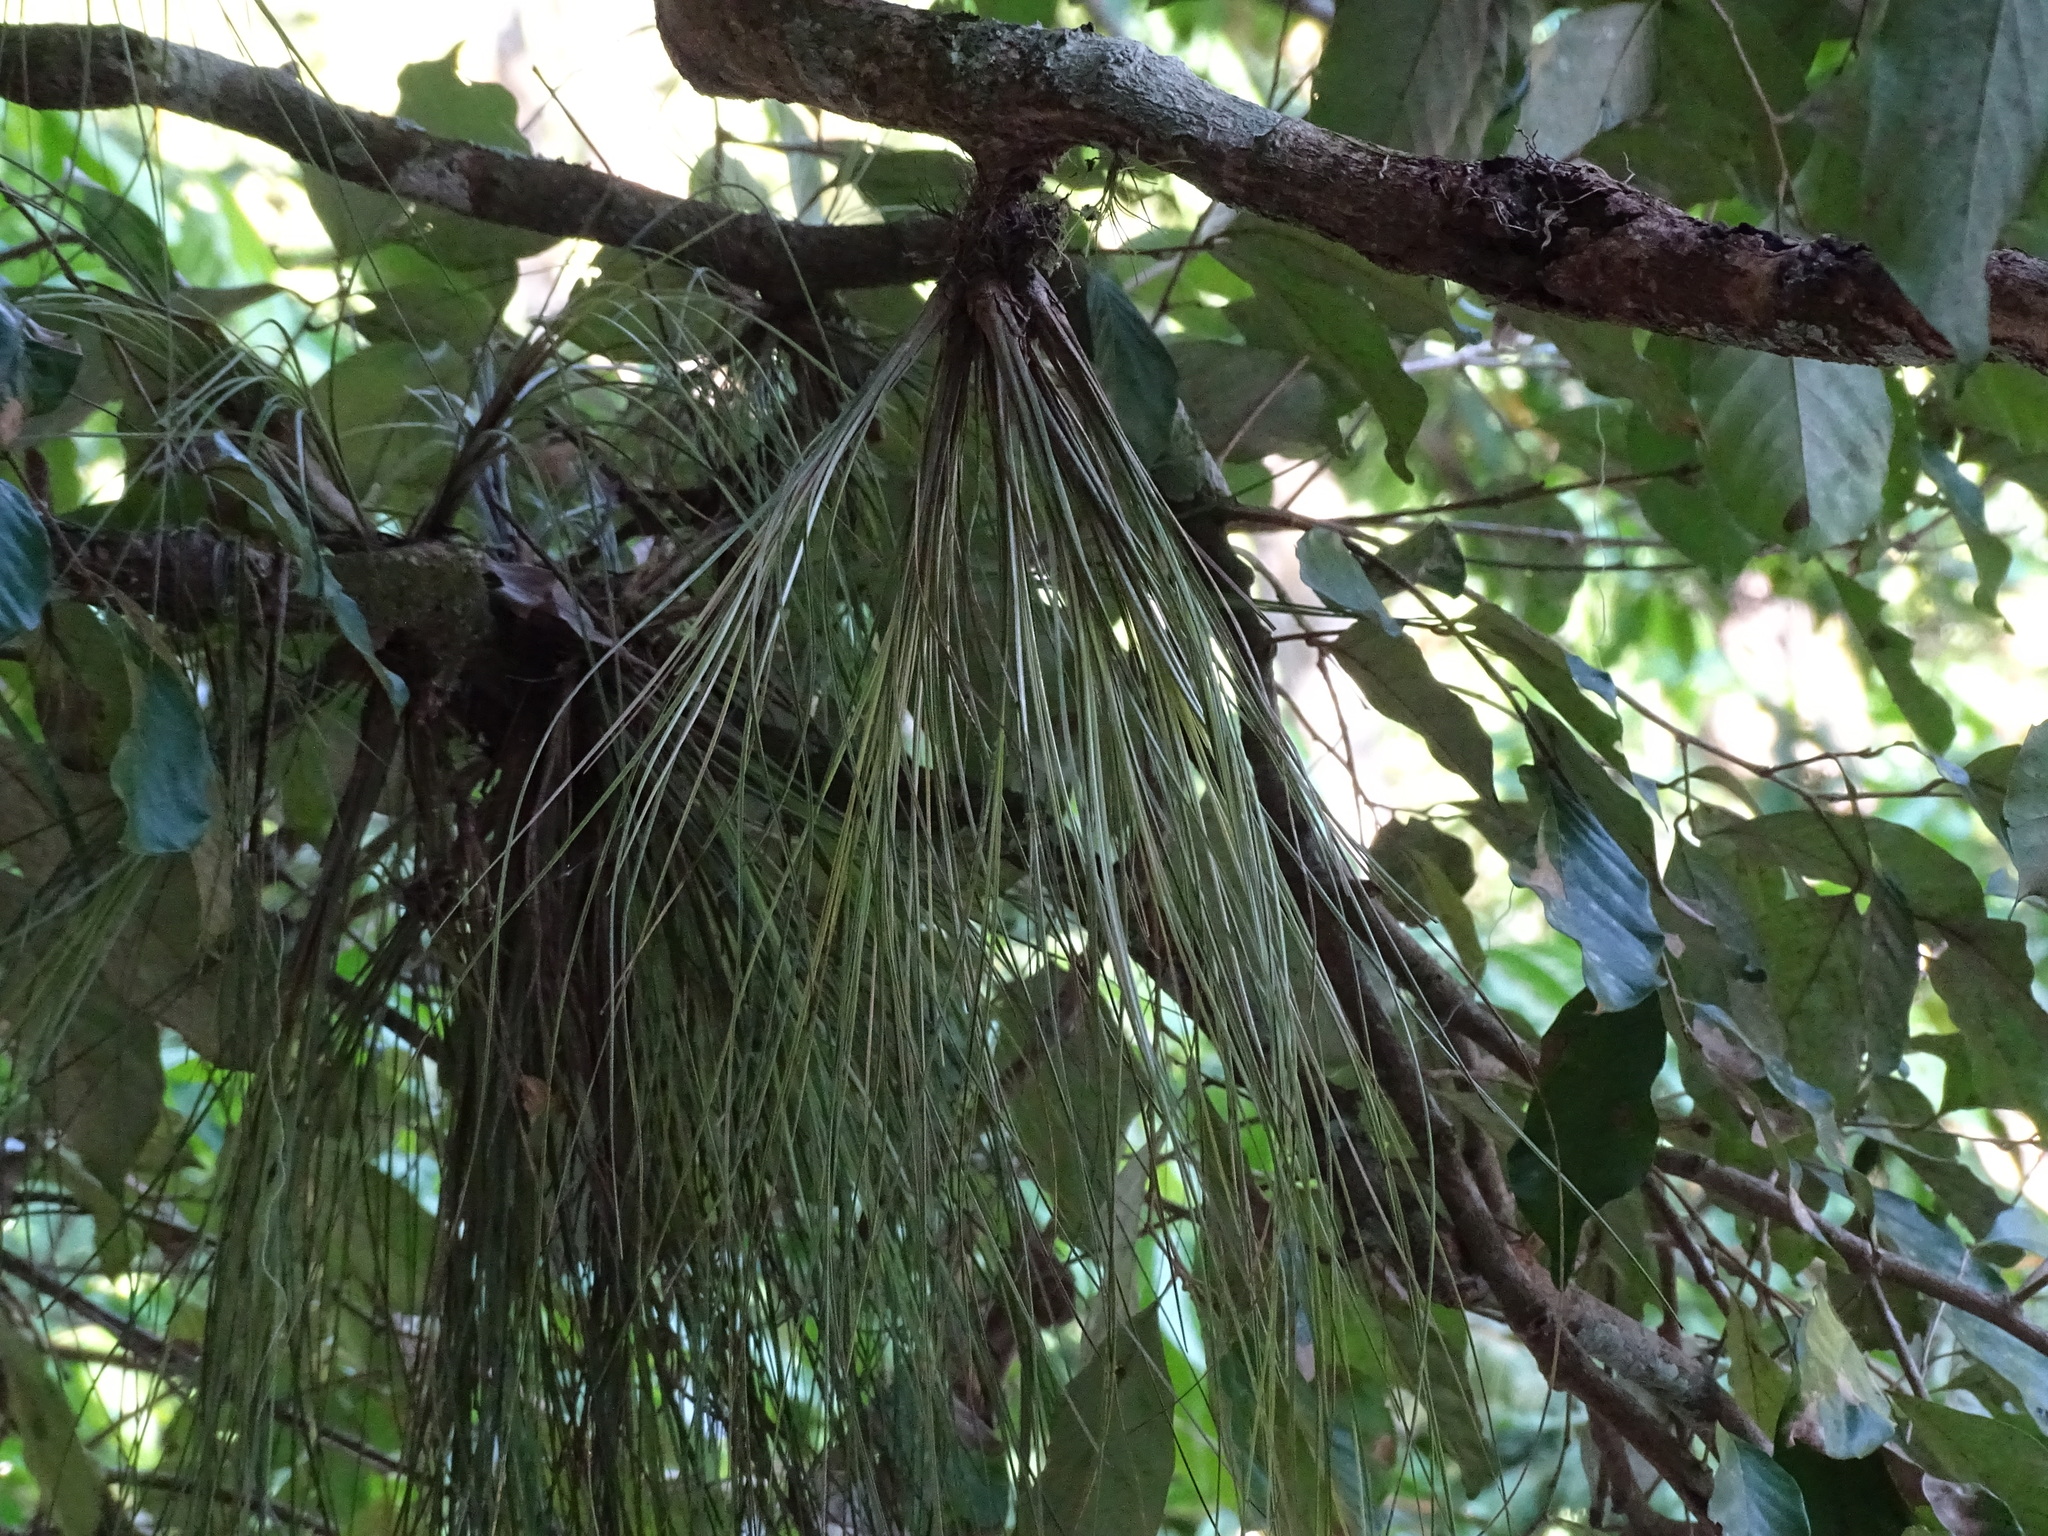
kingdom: Plantae
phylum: Tracheophyta
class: Liliopsida
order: Poales
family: Bromeliaceae
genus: Tillandsia
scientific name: Tillandsia eistetteri
